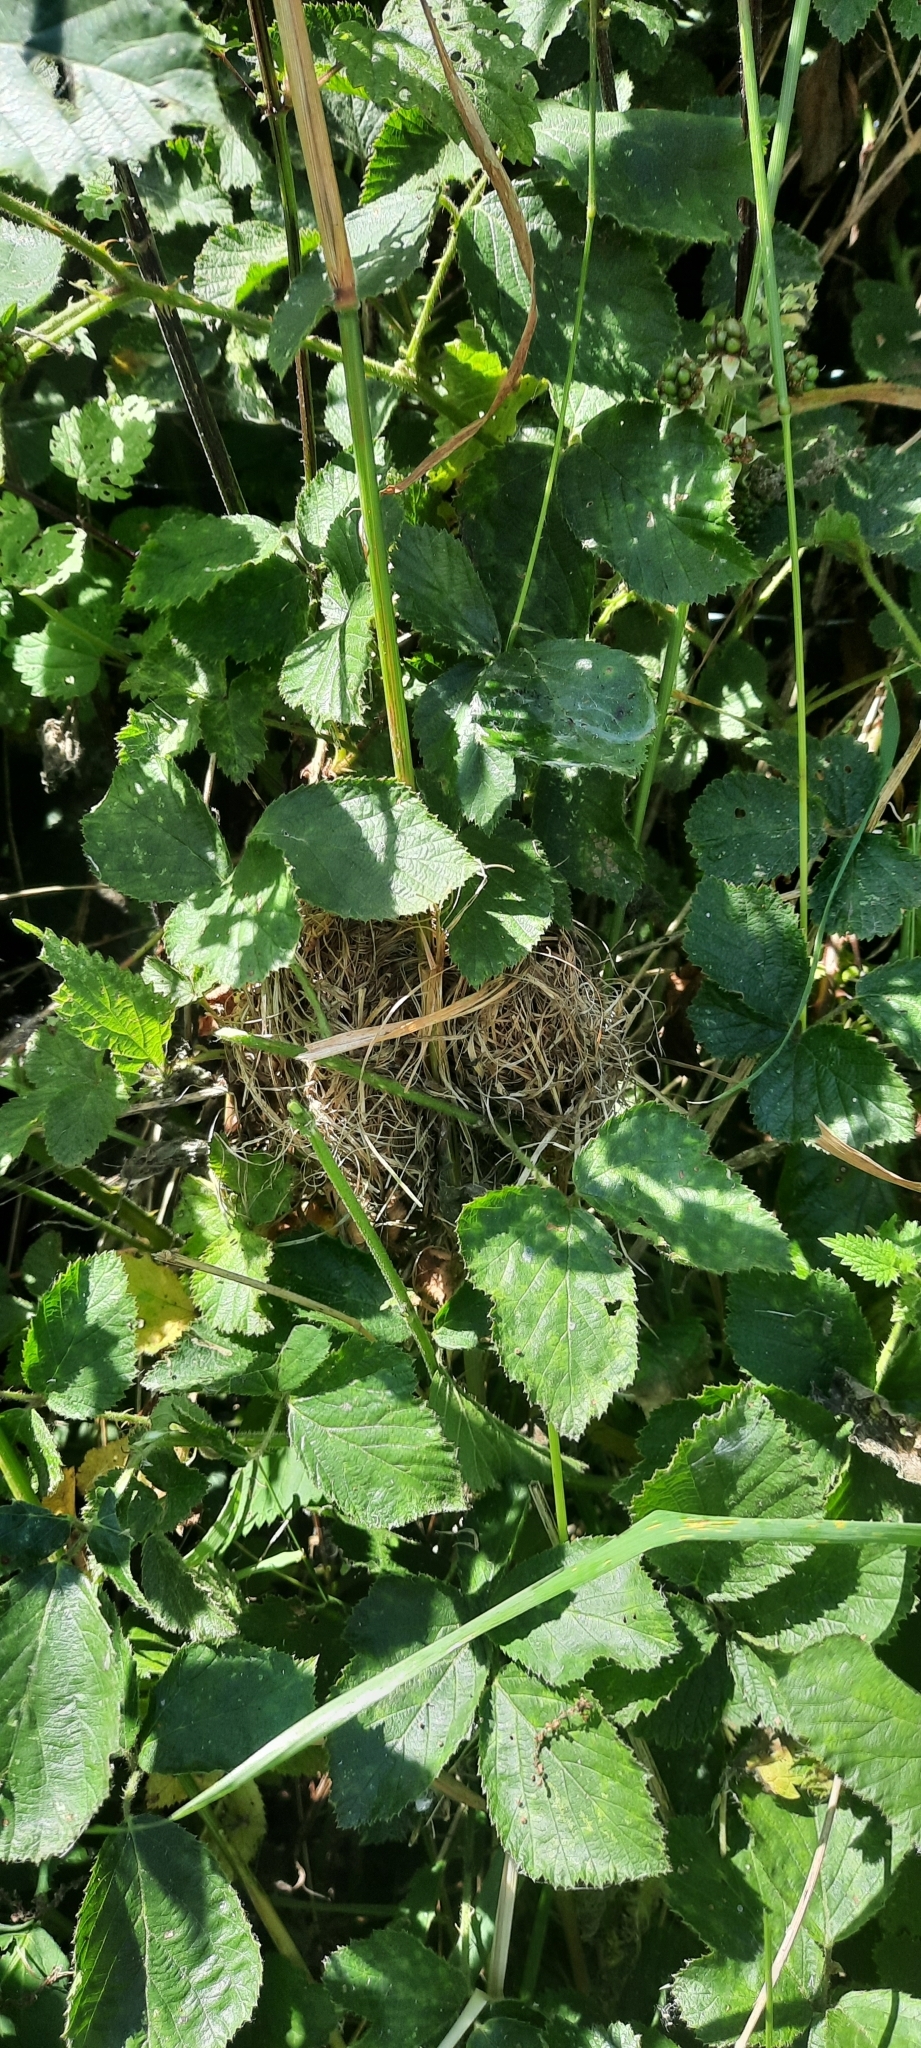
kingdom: Animalia
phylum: Chordata
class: Mammalia
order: Rodentia
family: Muridae
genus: Micromys
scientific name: Micromys minutus
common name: Harvest mouse
